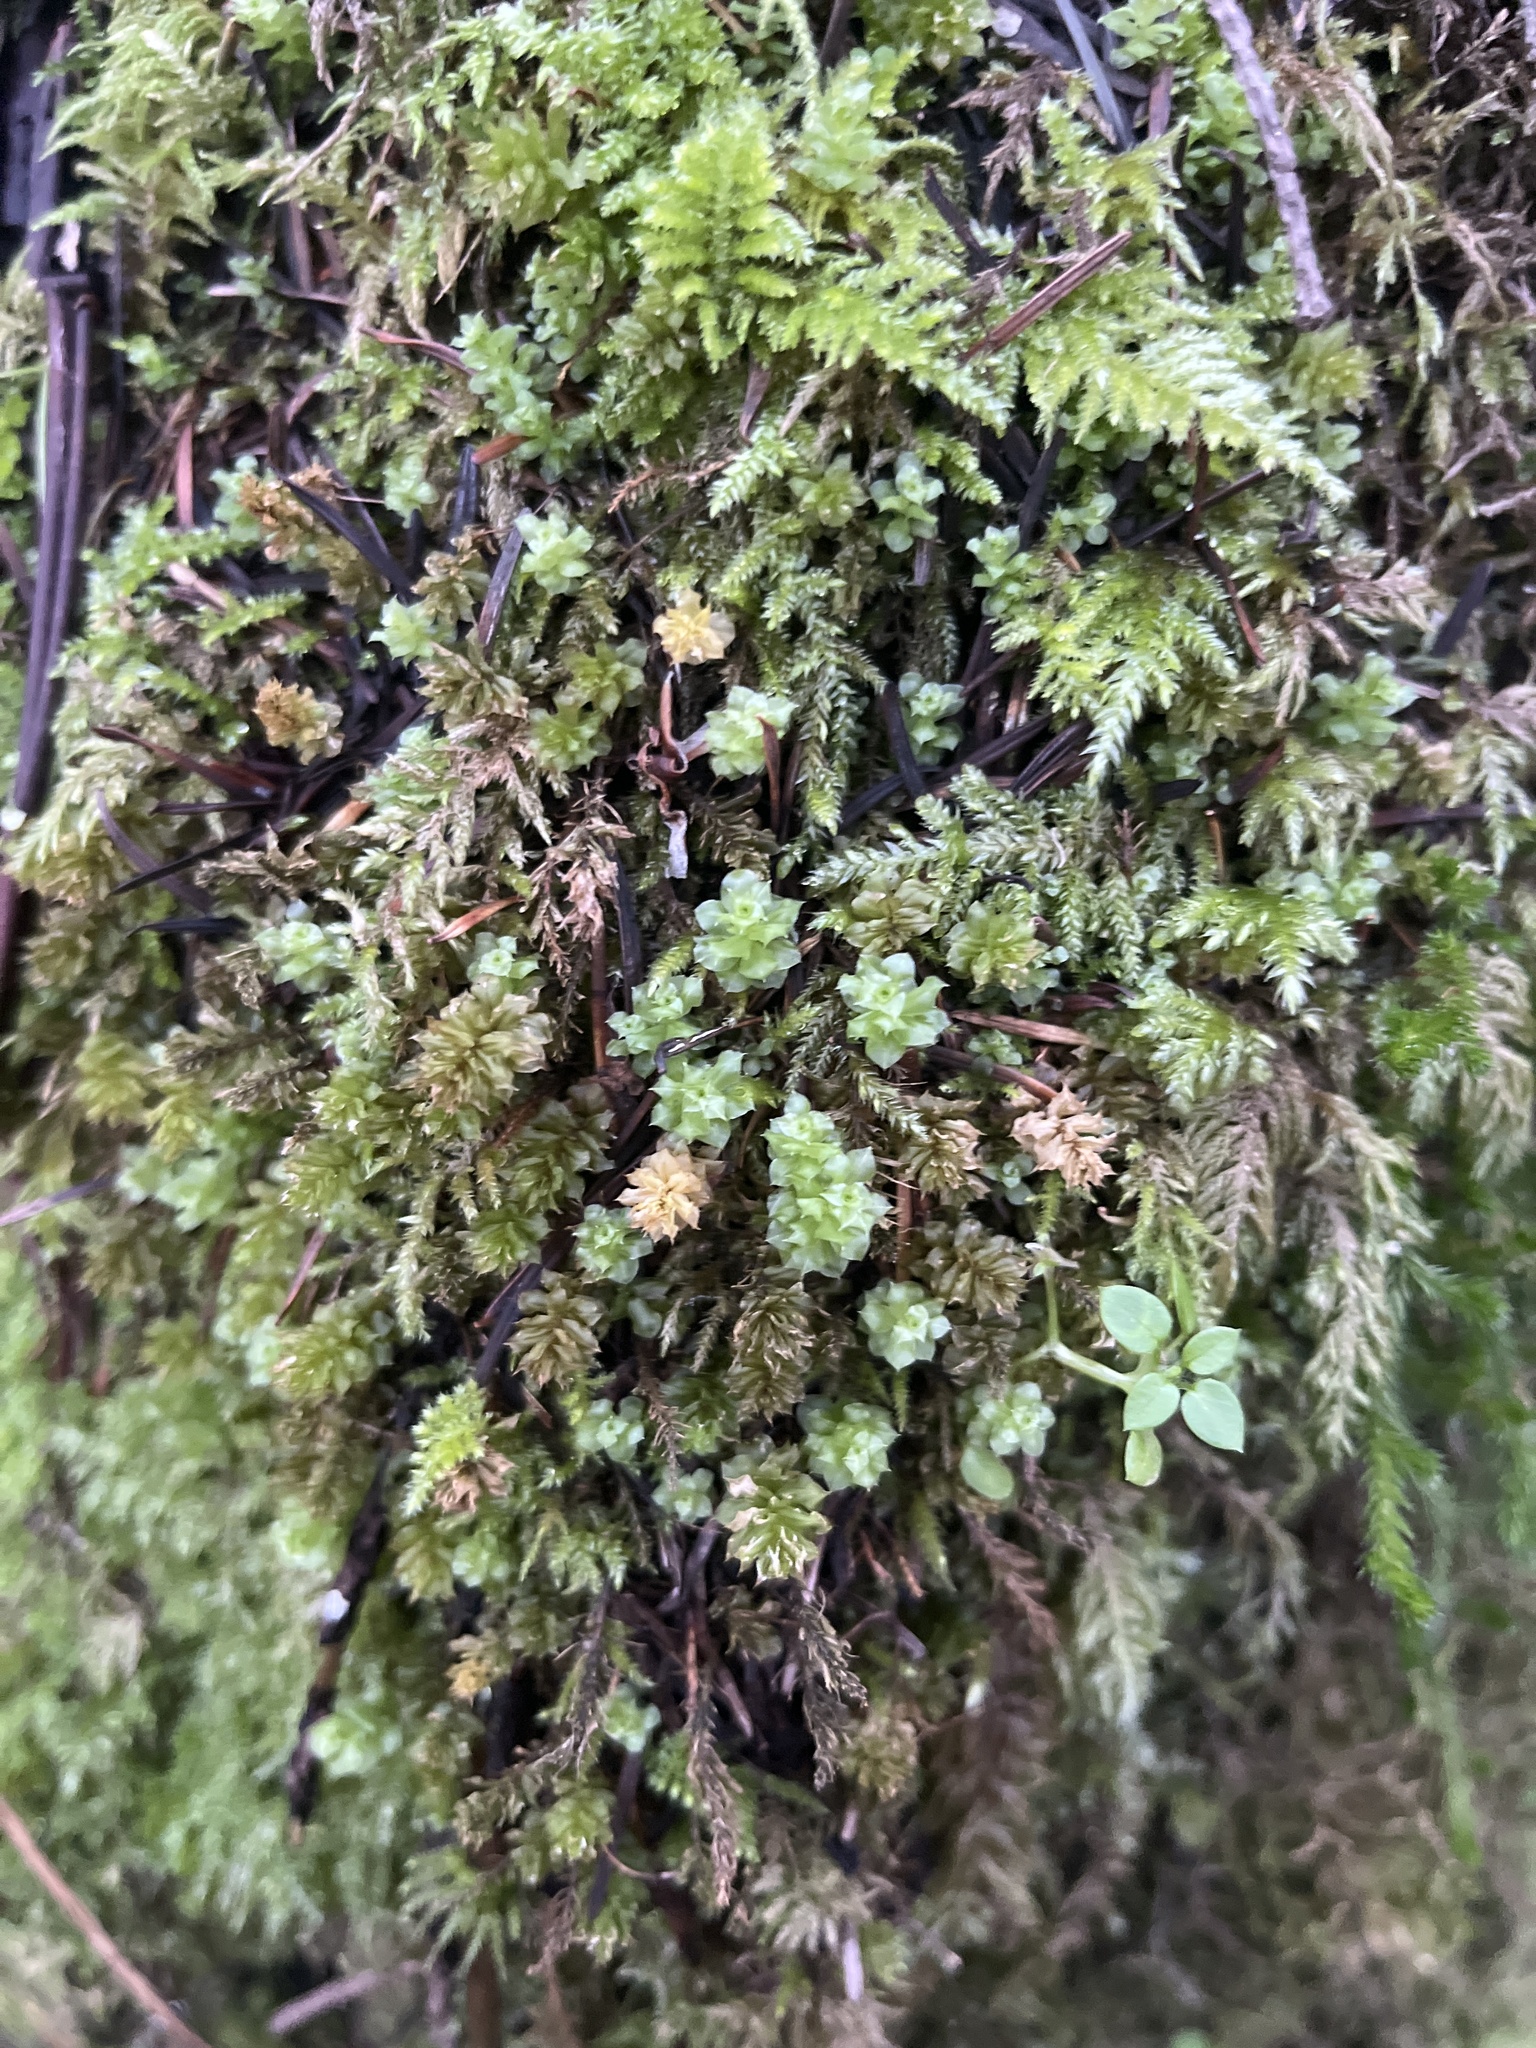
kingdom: Plantae
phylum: Bryophyta
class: Bryopsida
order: Bryales
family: Mniaceae
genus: Plagiomnium
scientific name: Plagiomnium venustum
